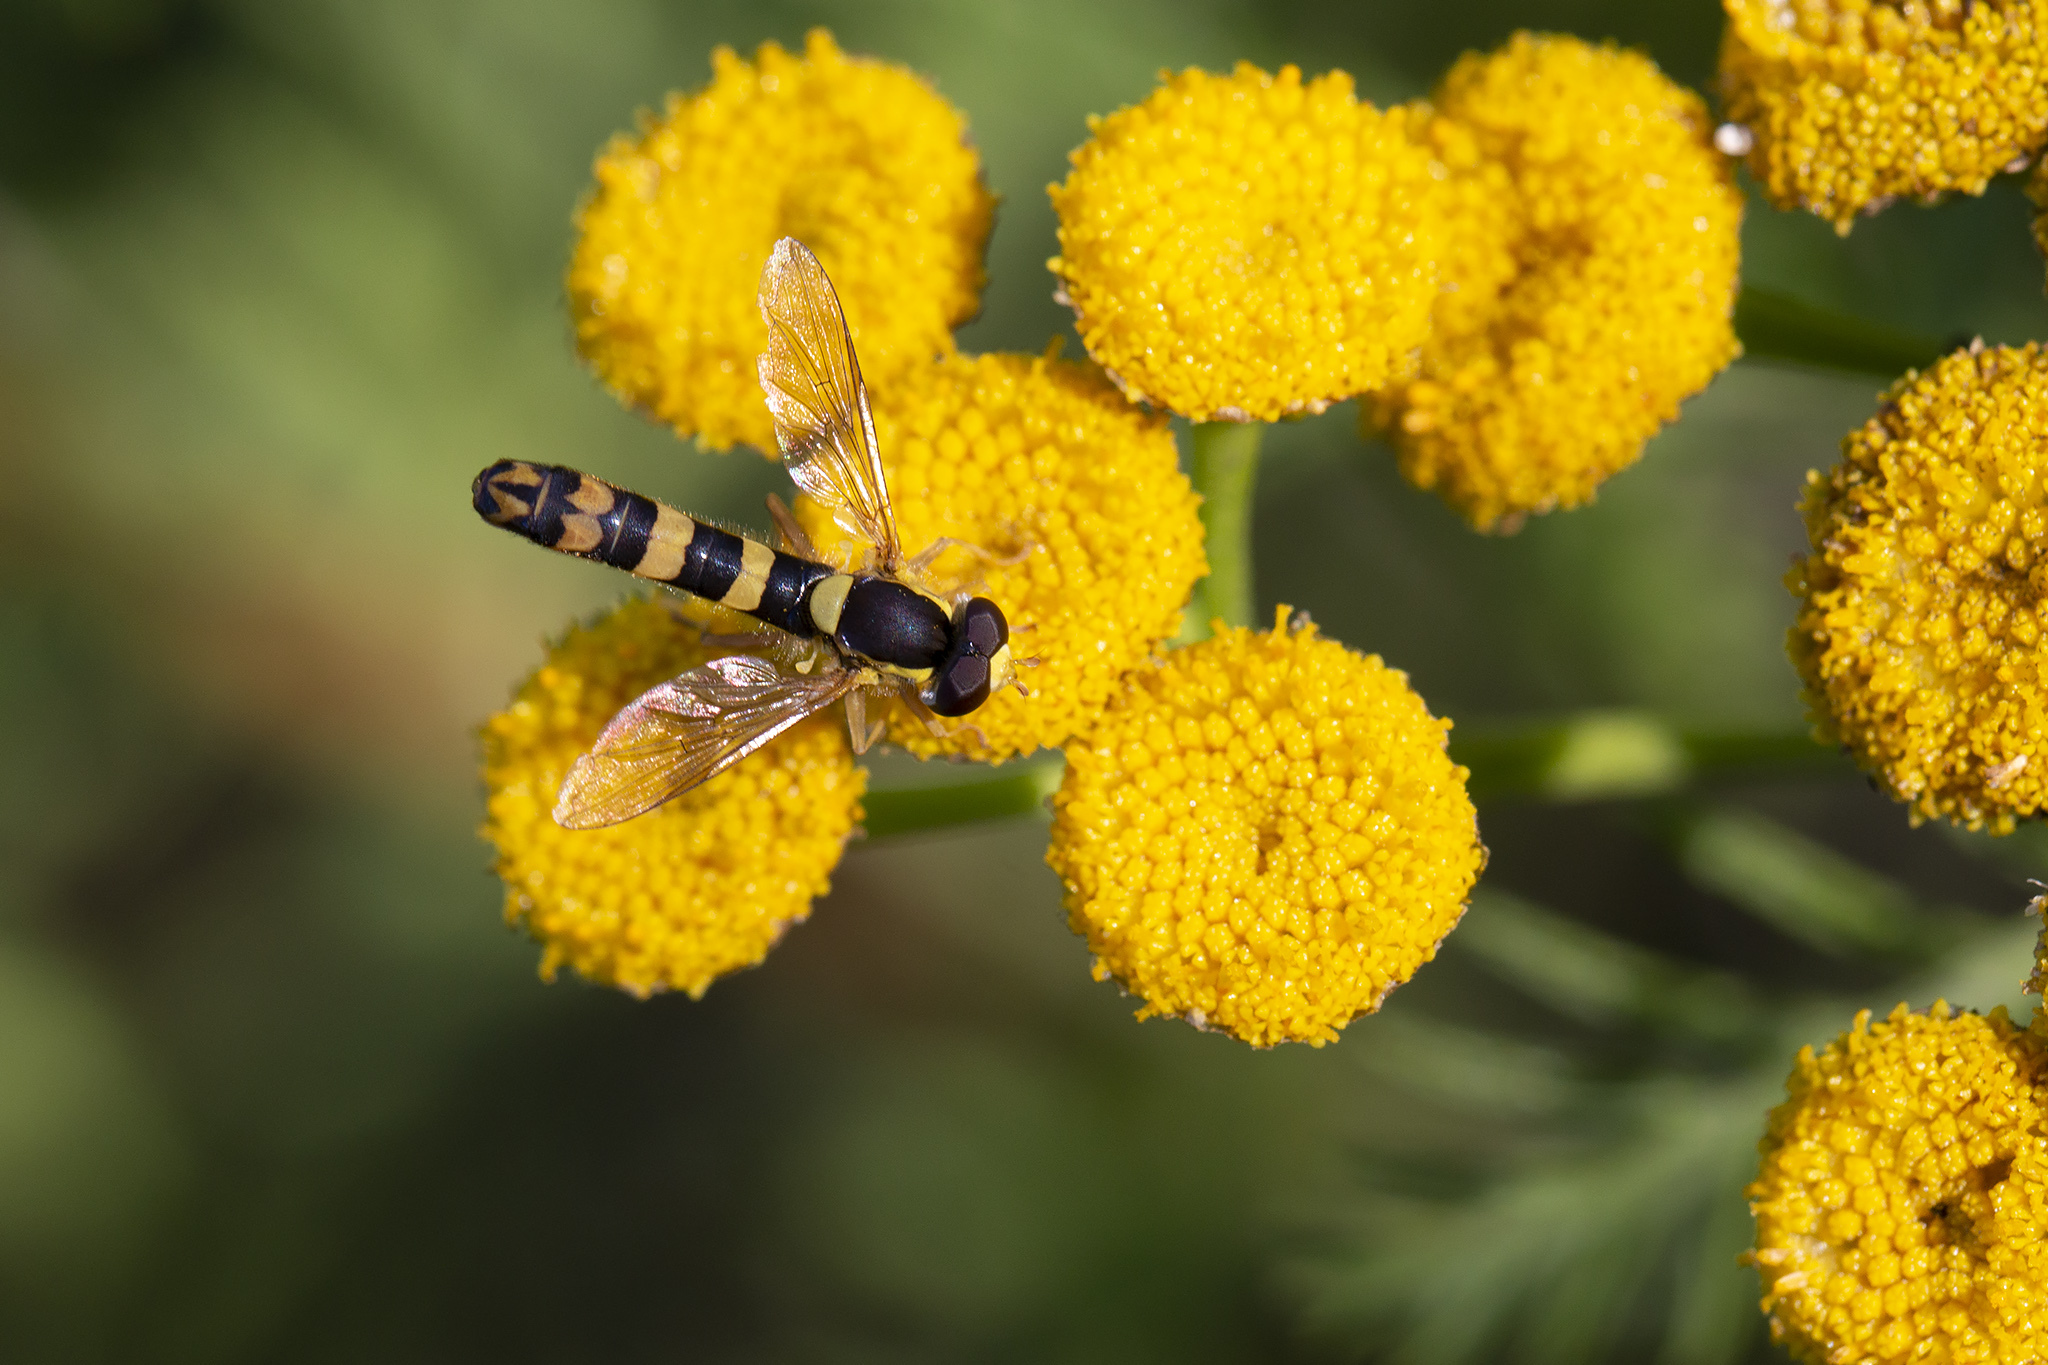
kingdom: Animalia
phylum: Arthropoda
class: Insecta
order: Diptera
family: Syrphidae
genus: Sphaerophoria
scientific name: Sphaerophoria scripta
